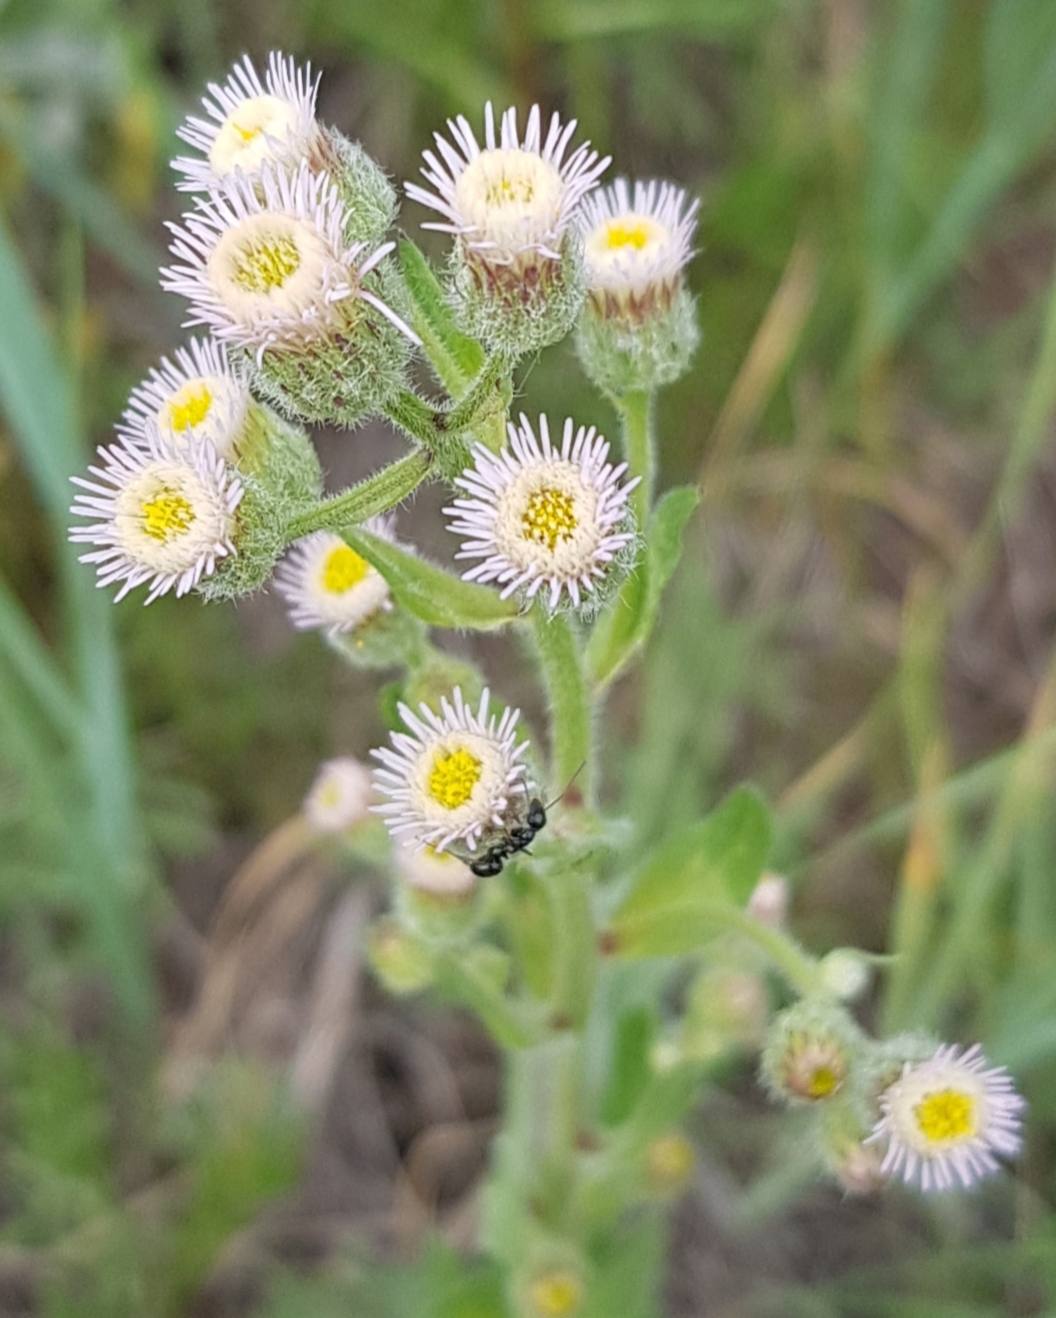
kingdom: Plantae
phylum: Tracheophyta
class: Magnoliopsida
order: Asterales
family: Asteraceae
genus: Erigeron
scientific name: Erigeron acris
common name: Blue fleabane
